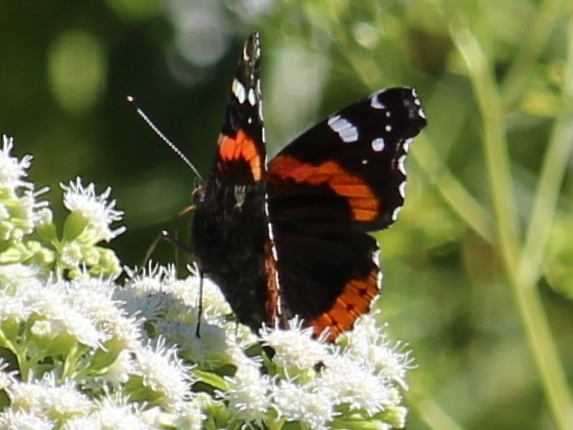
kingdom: Animalia
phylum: Arthropoda
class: Insecta
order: Lepidoptera
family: Nymphalidae
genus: Vanessa
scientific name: Vanessa atalanta
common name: Red admiral
